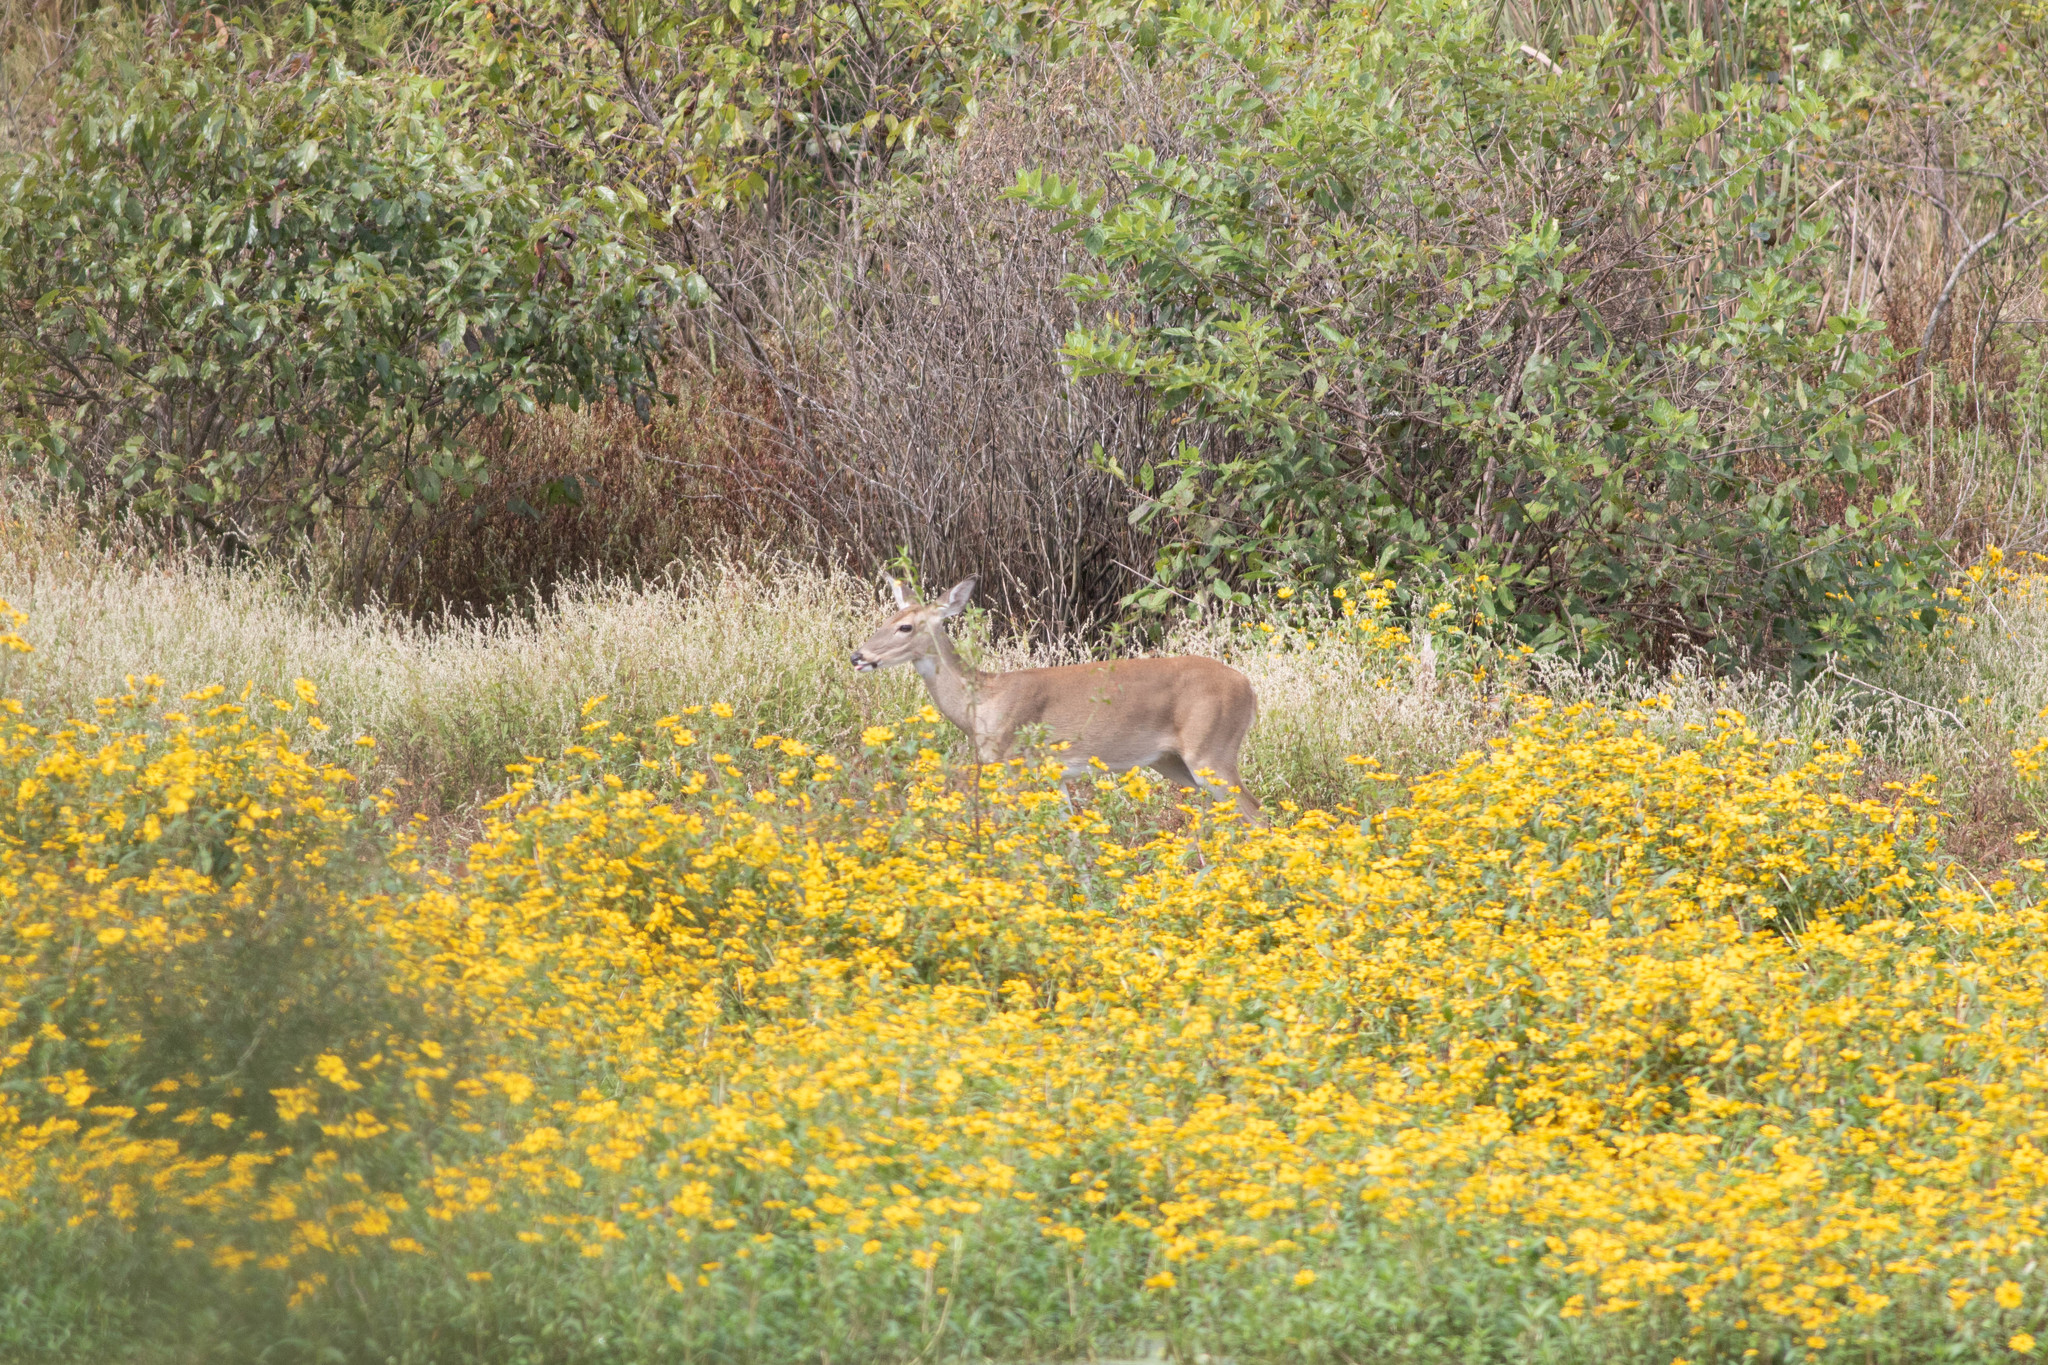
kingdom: Animalia
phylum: Chordata
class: Mammalia
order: Artiodactyla
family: Cervidae
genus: Odocoileus
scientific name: Odocoileus virginianus
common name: White-tailed deer
